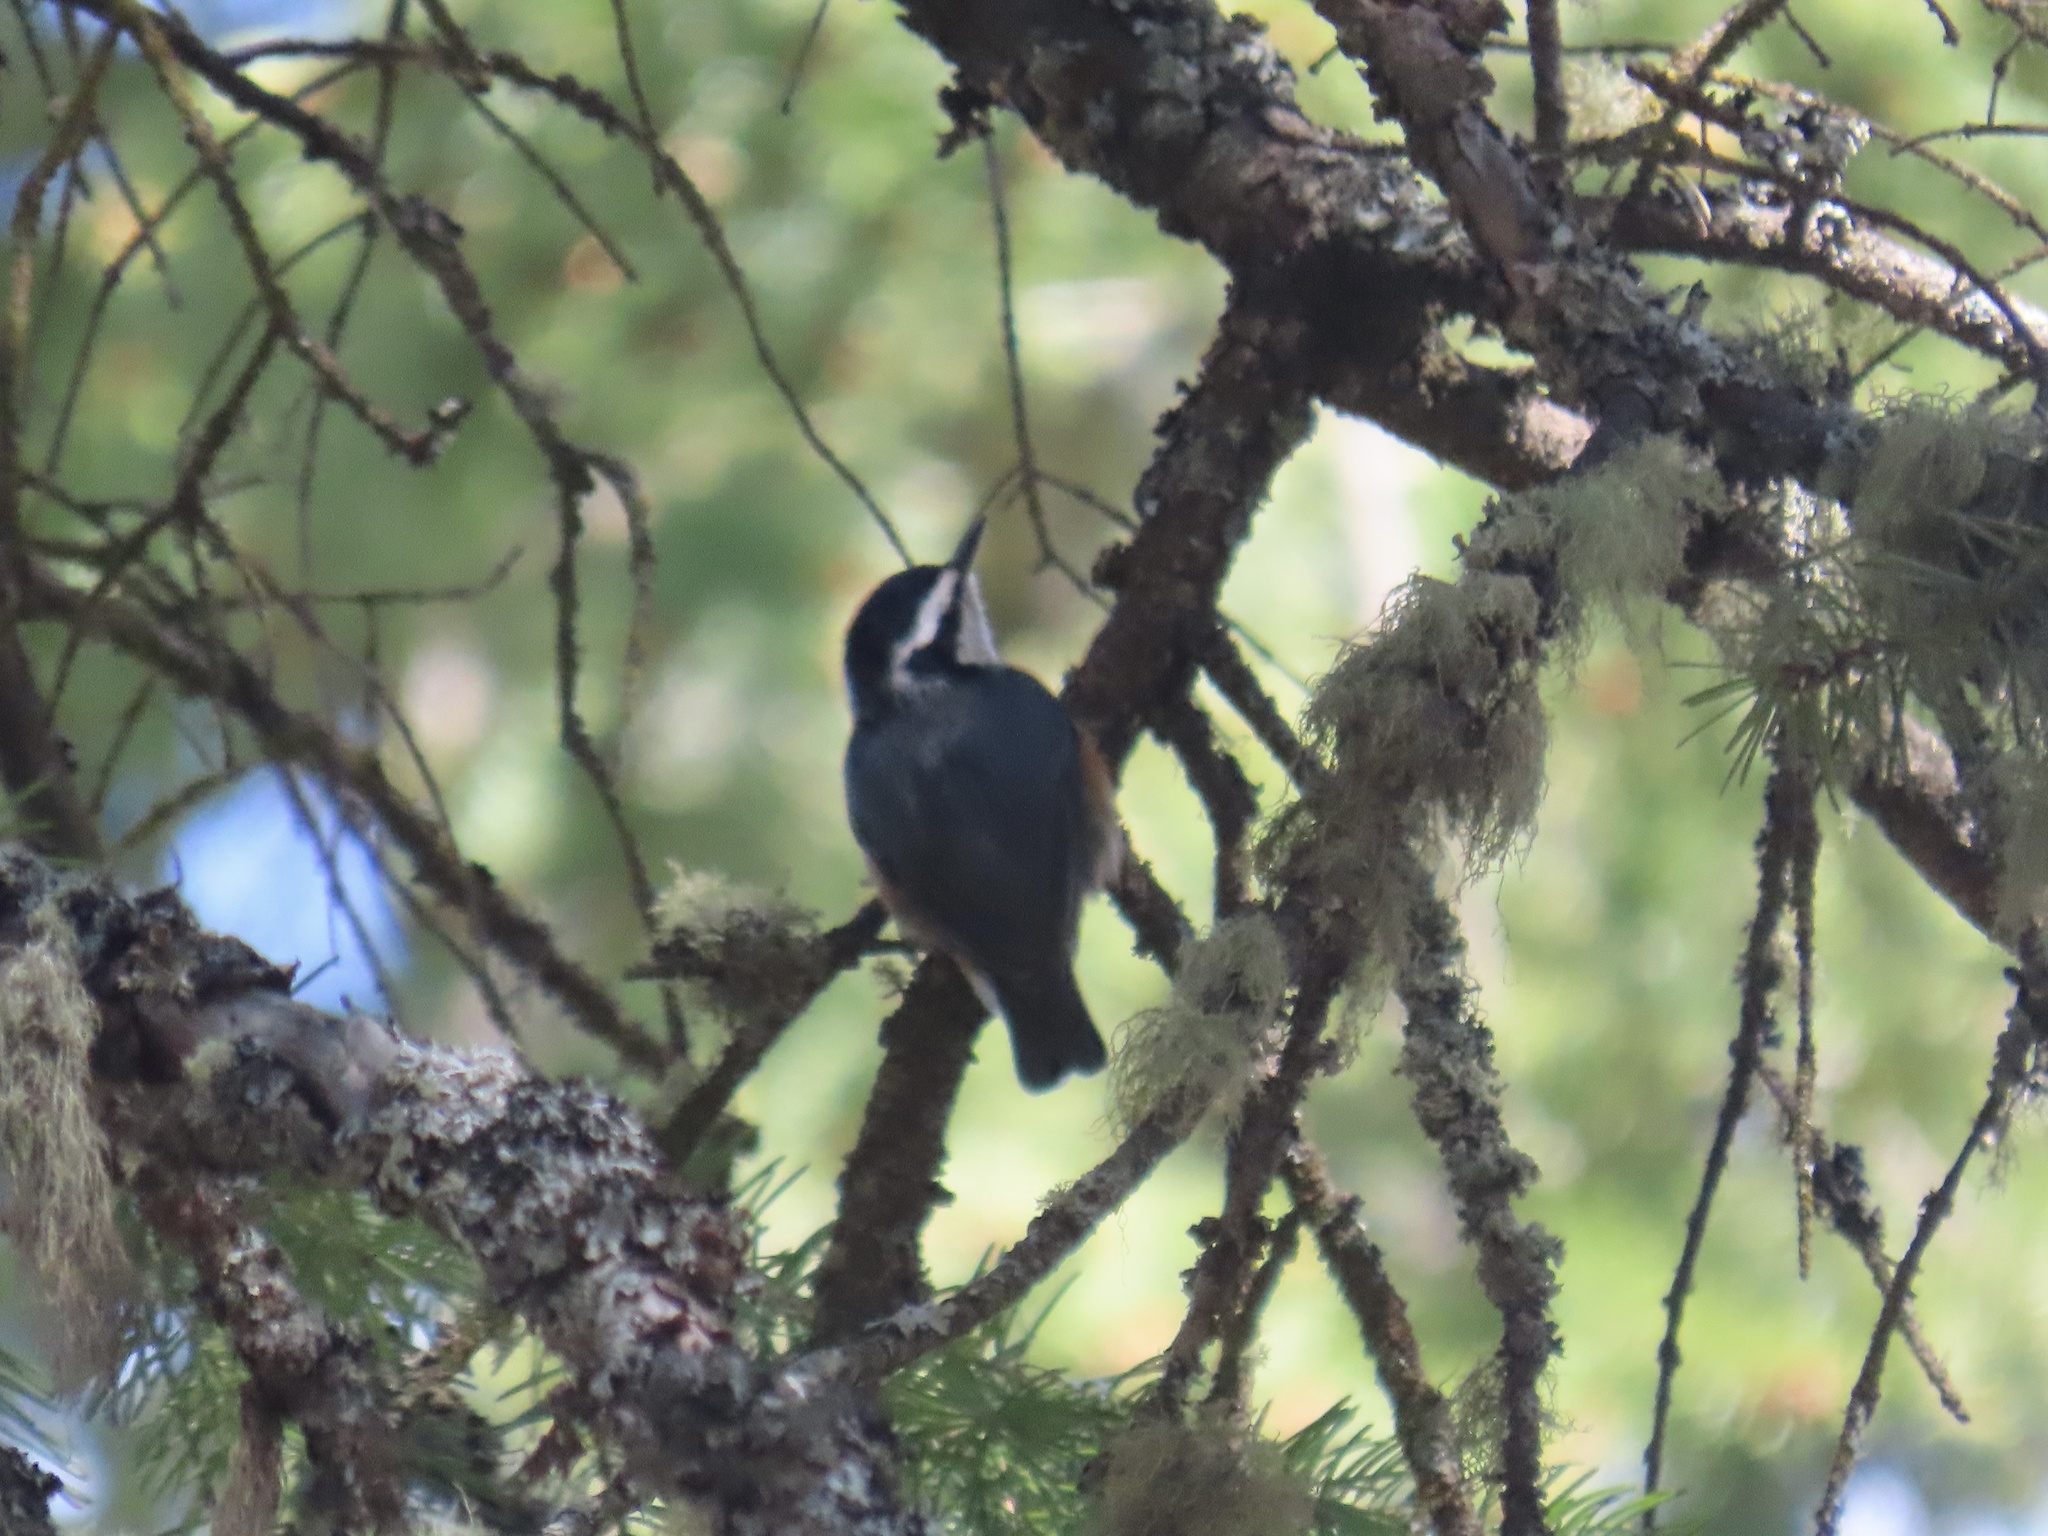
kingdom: Animalia
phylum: Chordata
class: Aves
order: Passeriformes
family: Sittidae
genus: Sitta
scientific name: Sitta canadensis
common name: Red-breasted nuthatch
